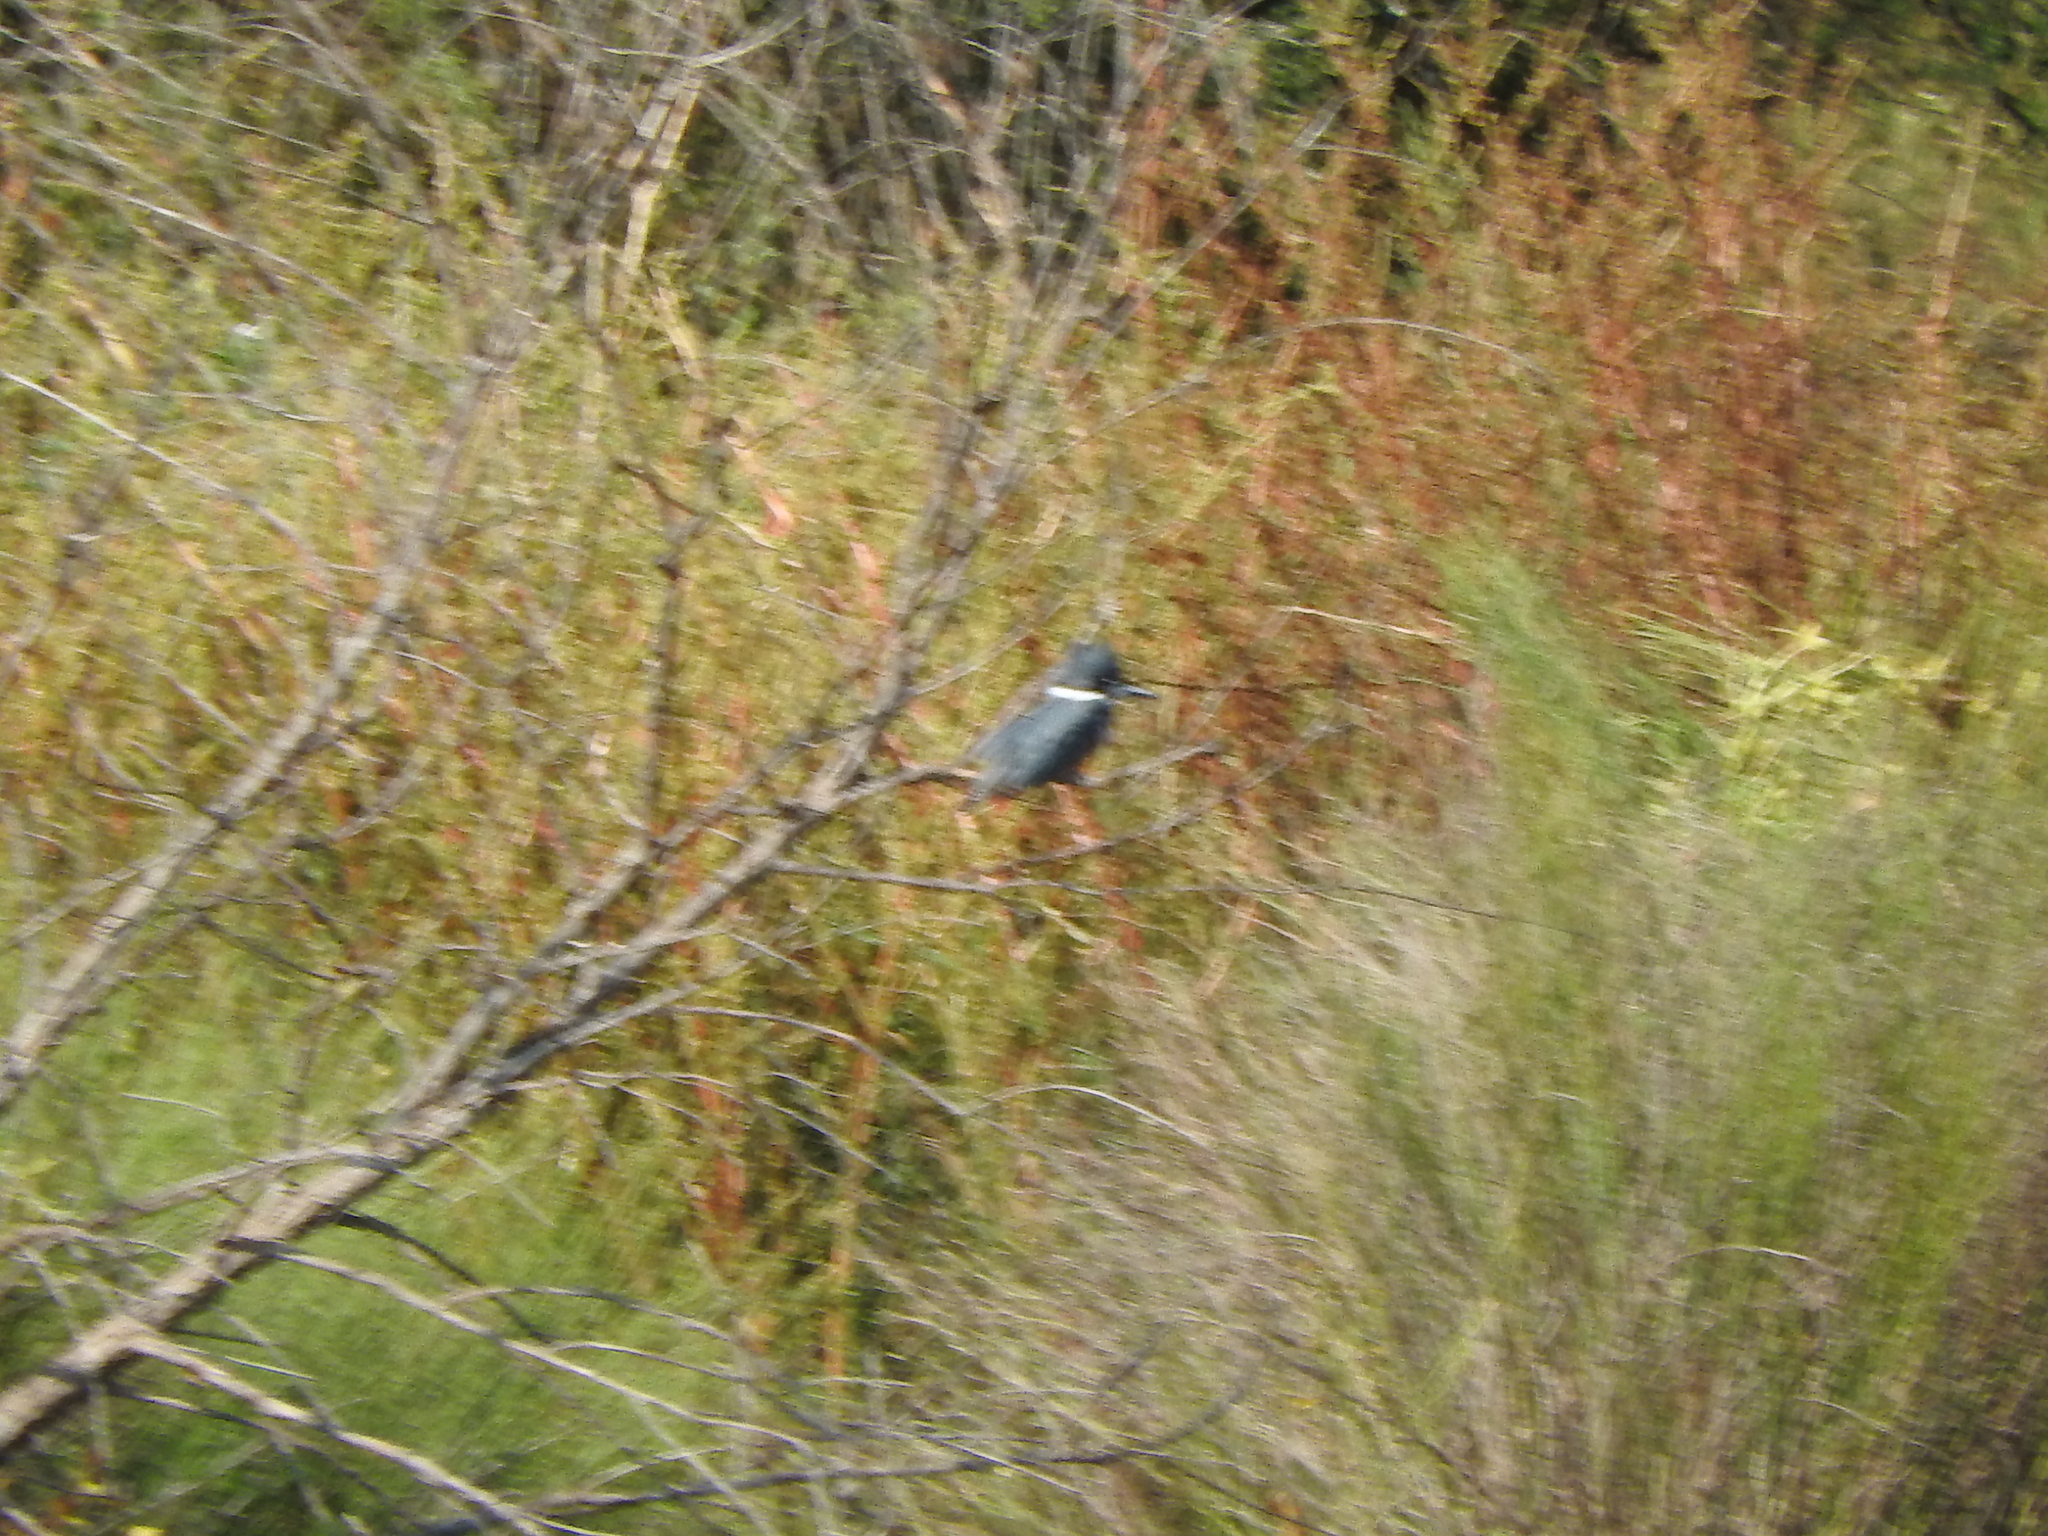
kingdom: Animalia
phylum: Chordata
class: Aves
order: Coraciiformes
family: Alcedinidae
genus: Megaceryle
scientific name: Megaceryle alcyon
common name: Belted kingfisher
